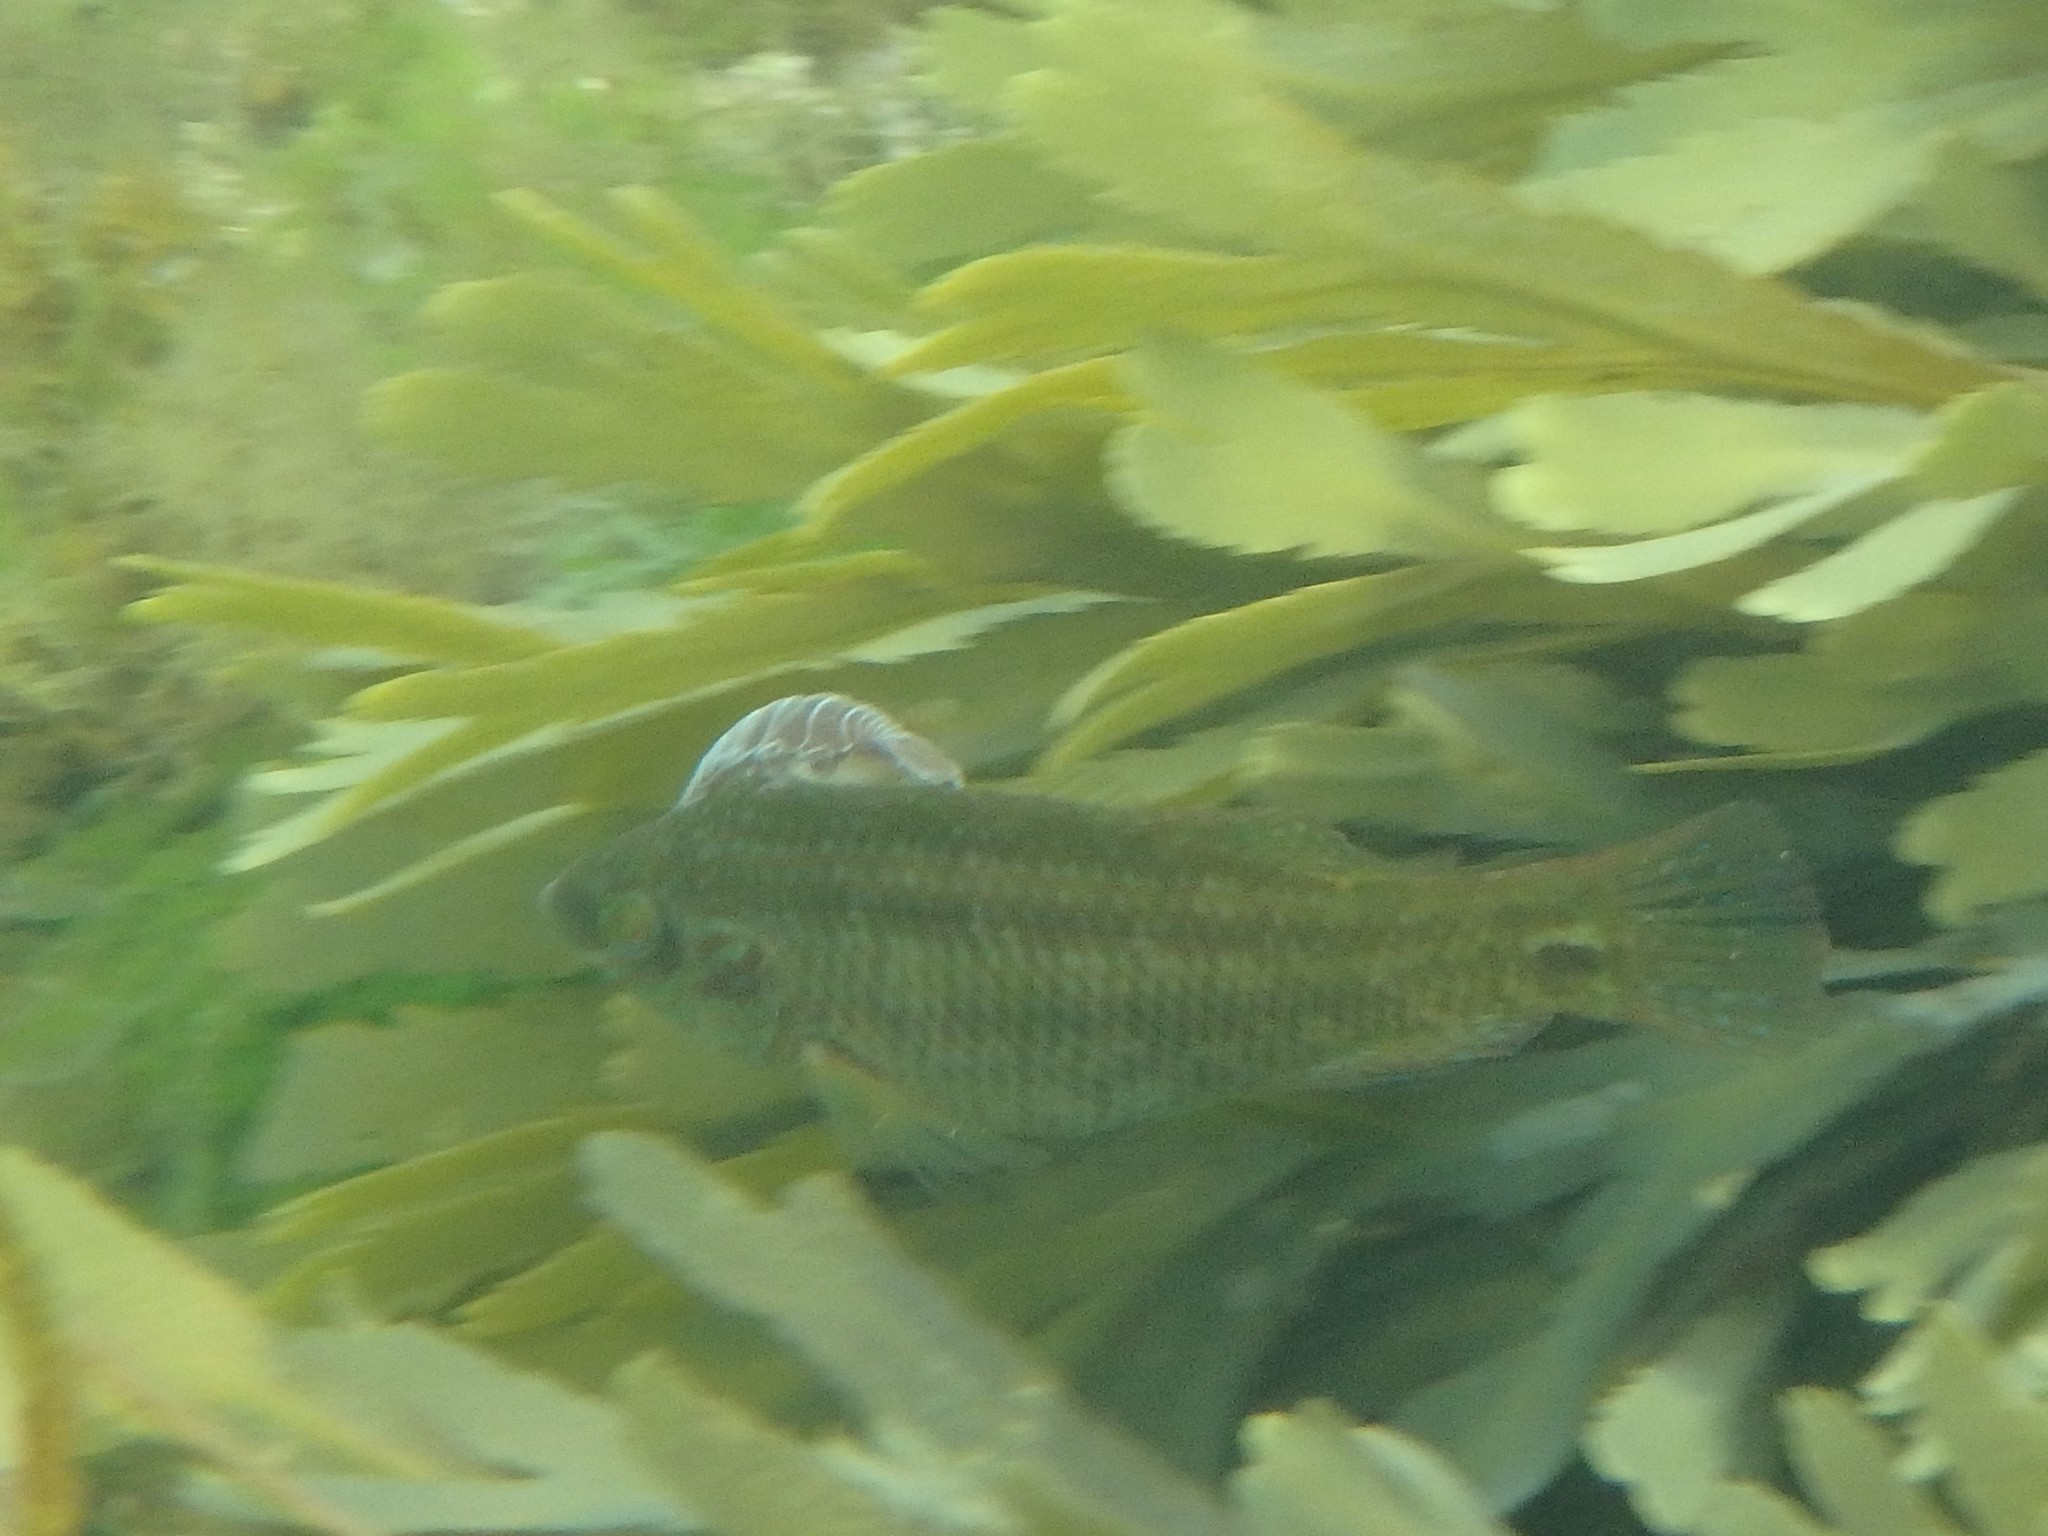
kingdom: Animalia
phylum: Arthropoda
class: Malacostraca
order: Isopoda
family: Cymothoidae
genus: Anilocra
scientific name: Anilocra
